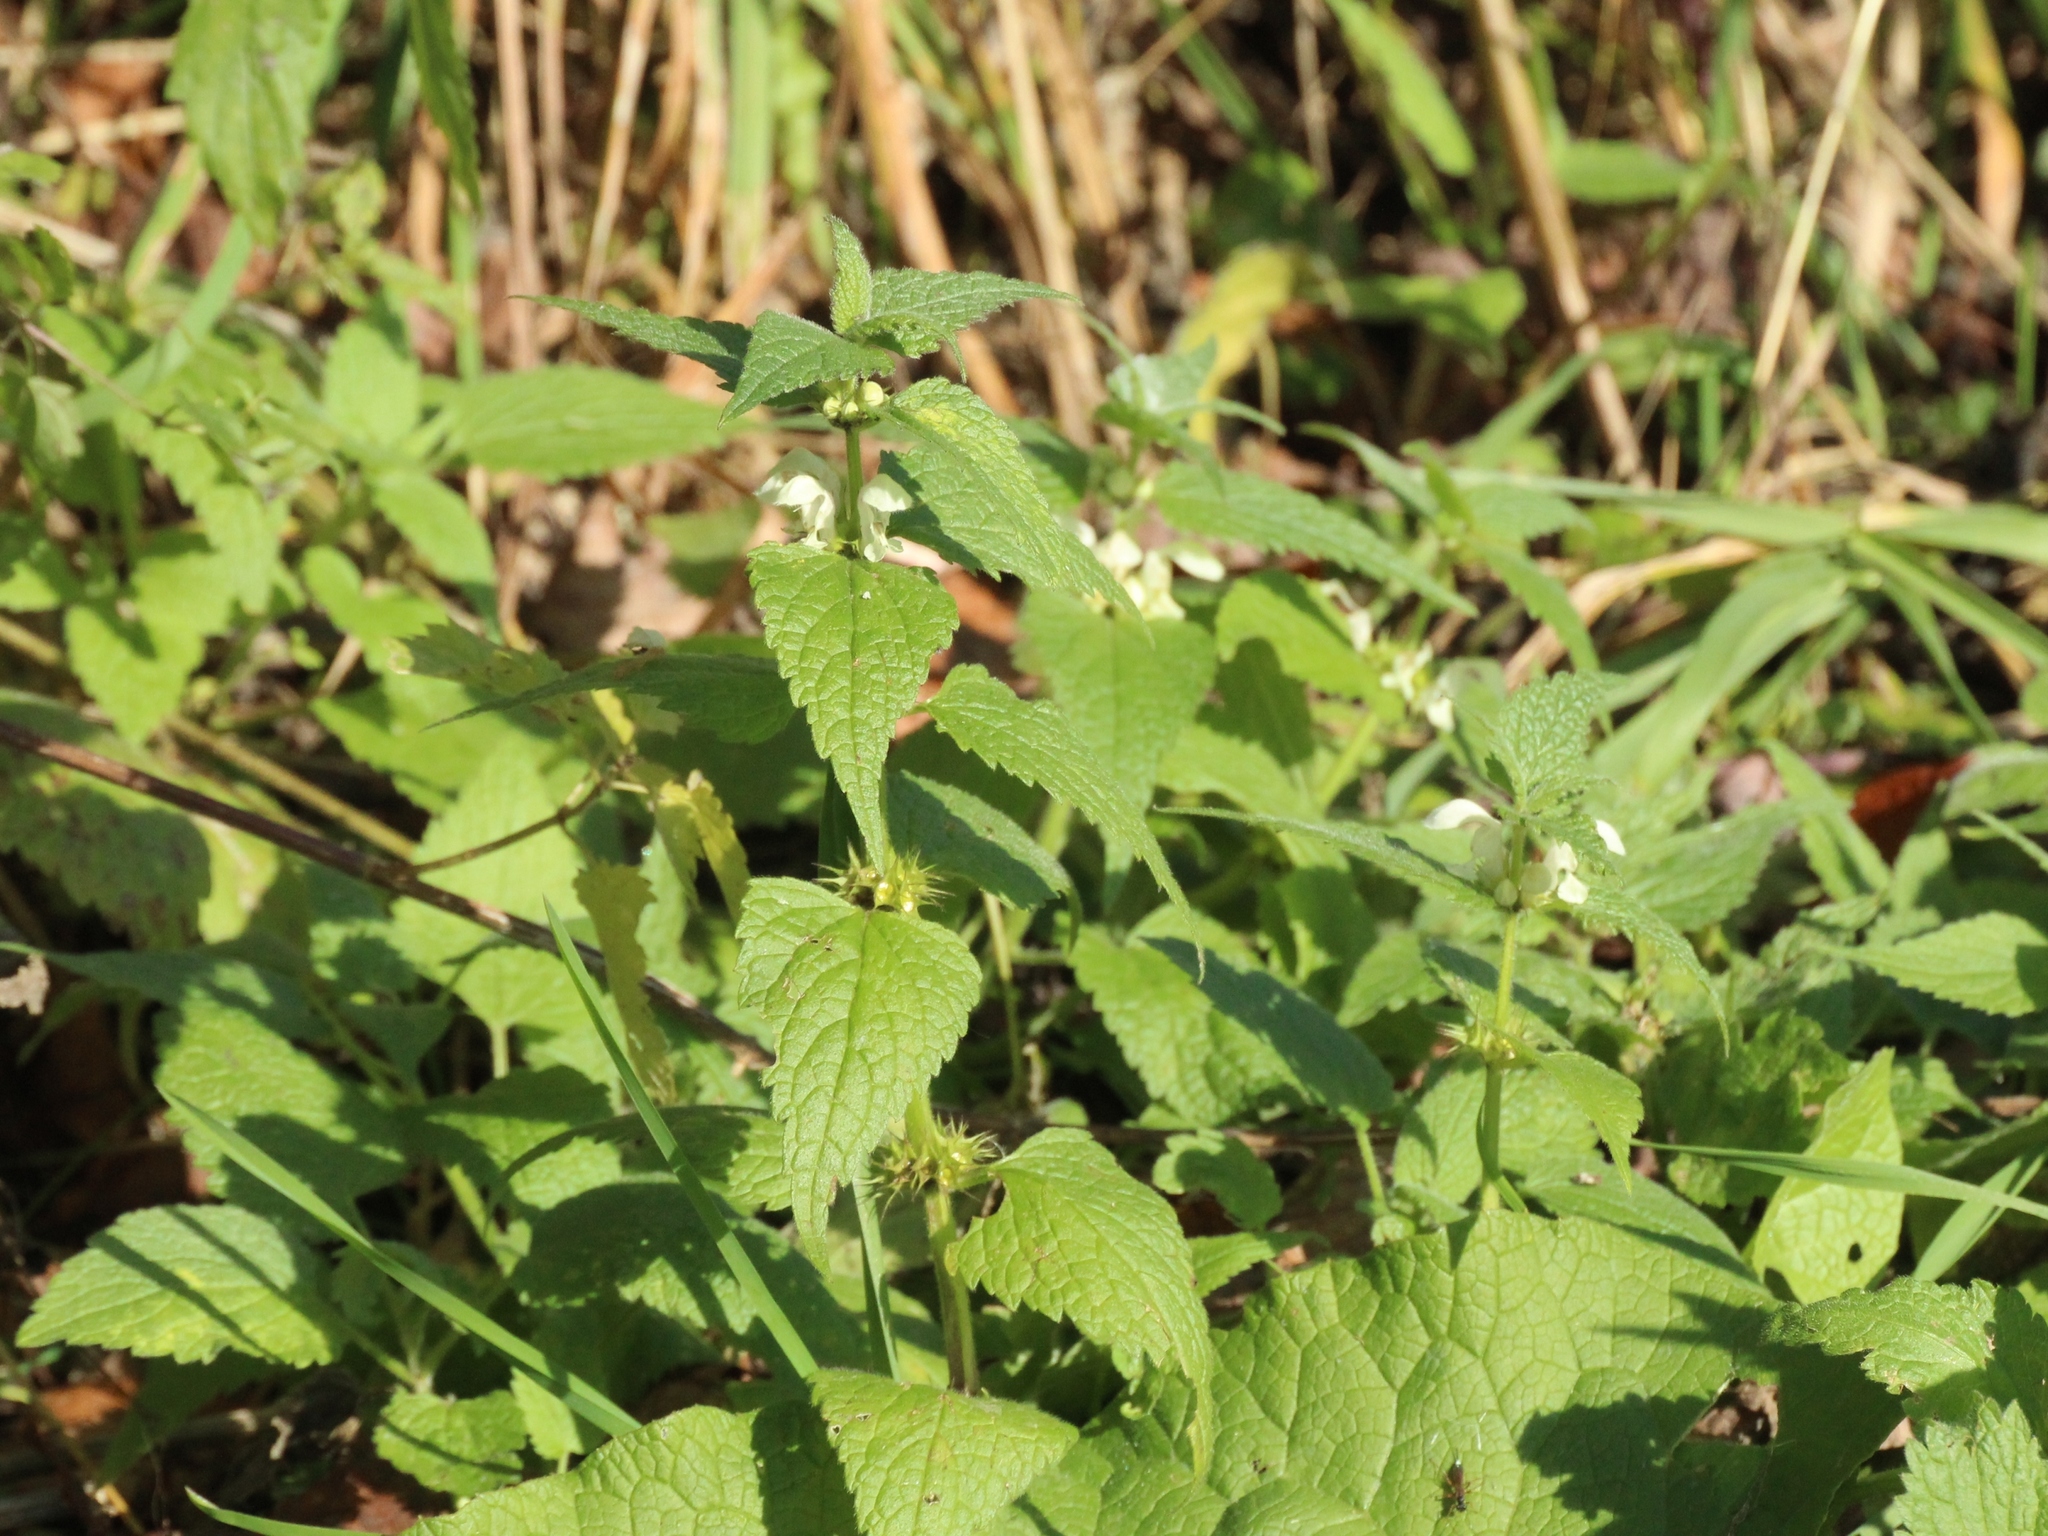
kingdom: Plantae
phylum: Tracheophyta
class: Magnoliopsida
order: Lamiales
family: Lamiaceae
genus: Lamium
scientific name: Lamium album
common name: White dead-nettle
